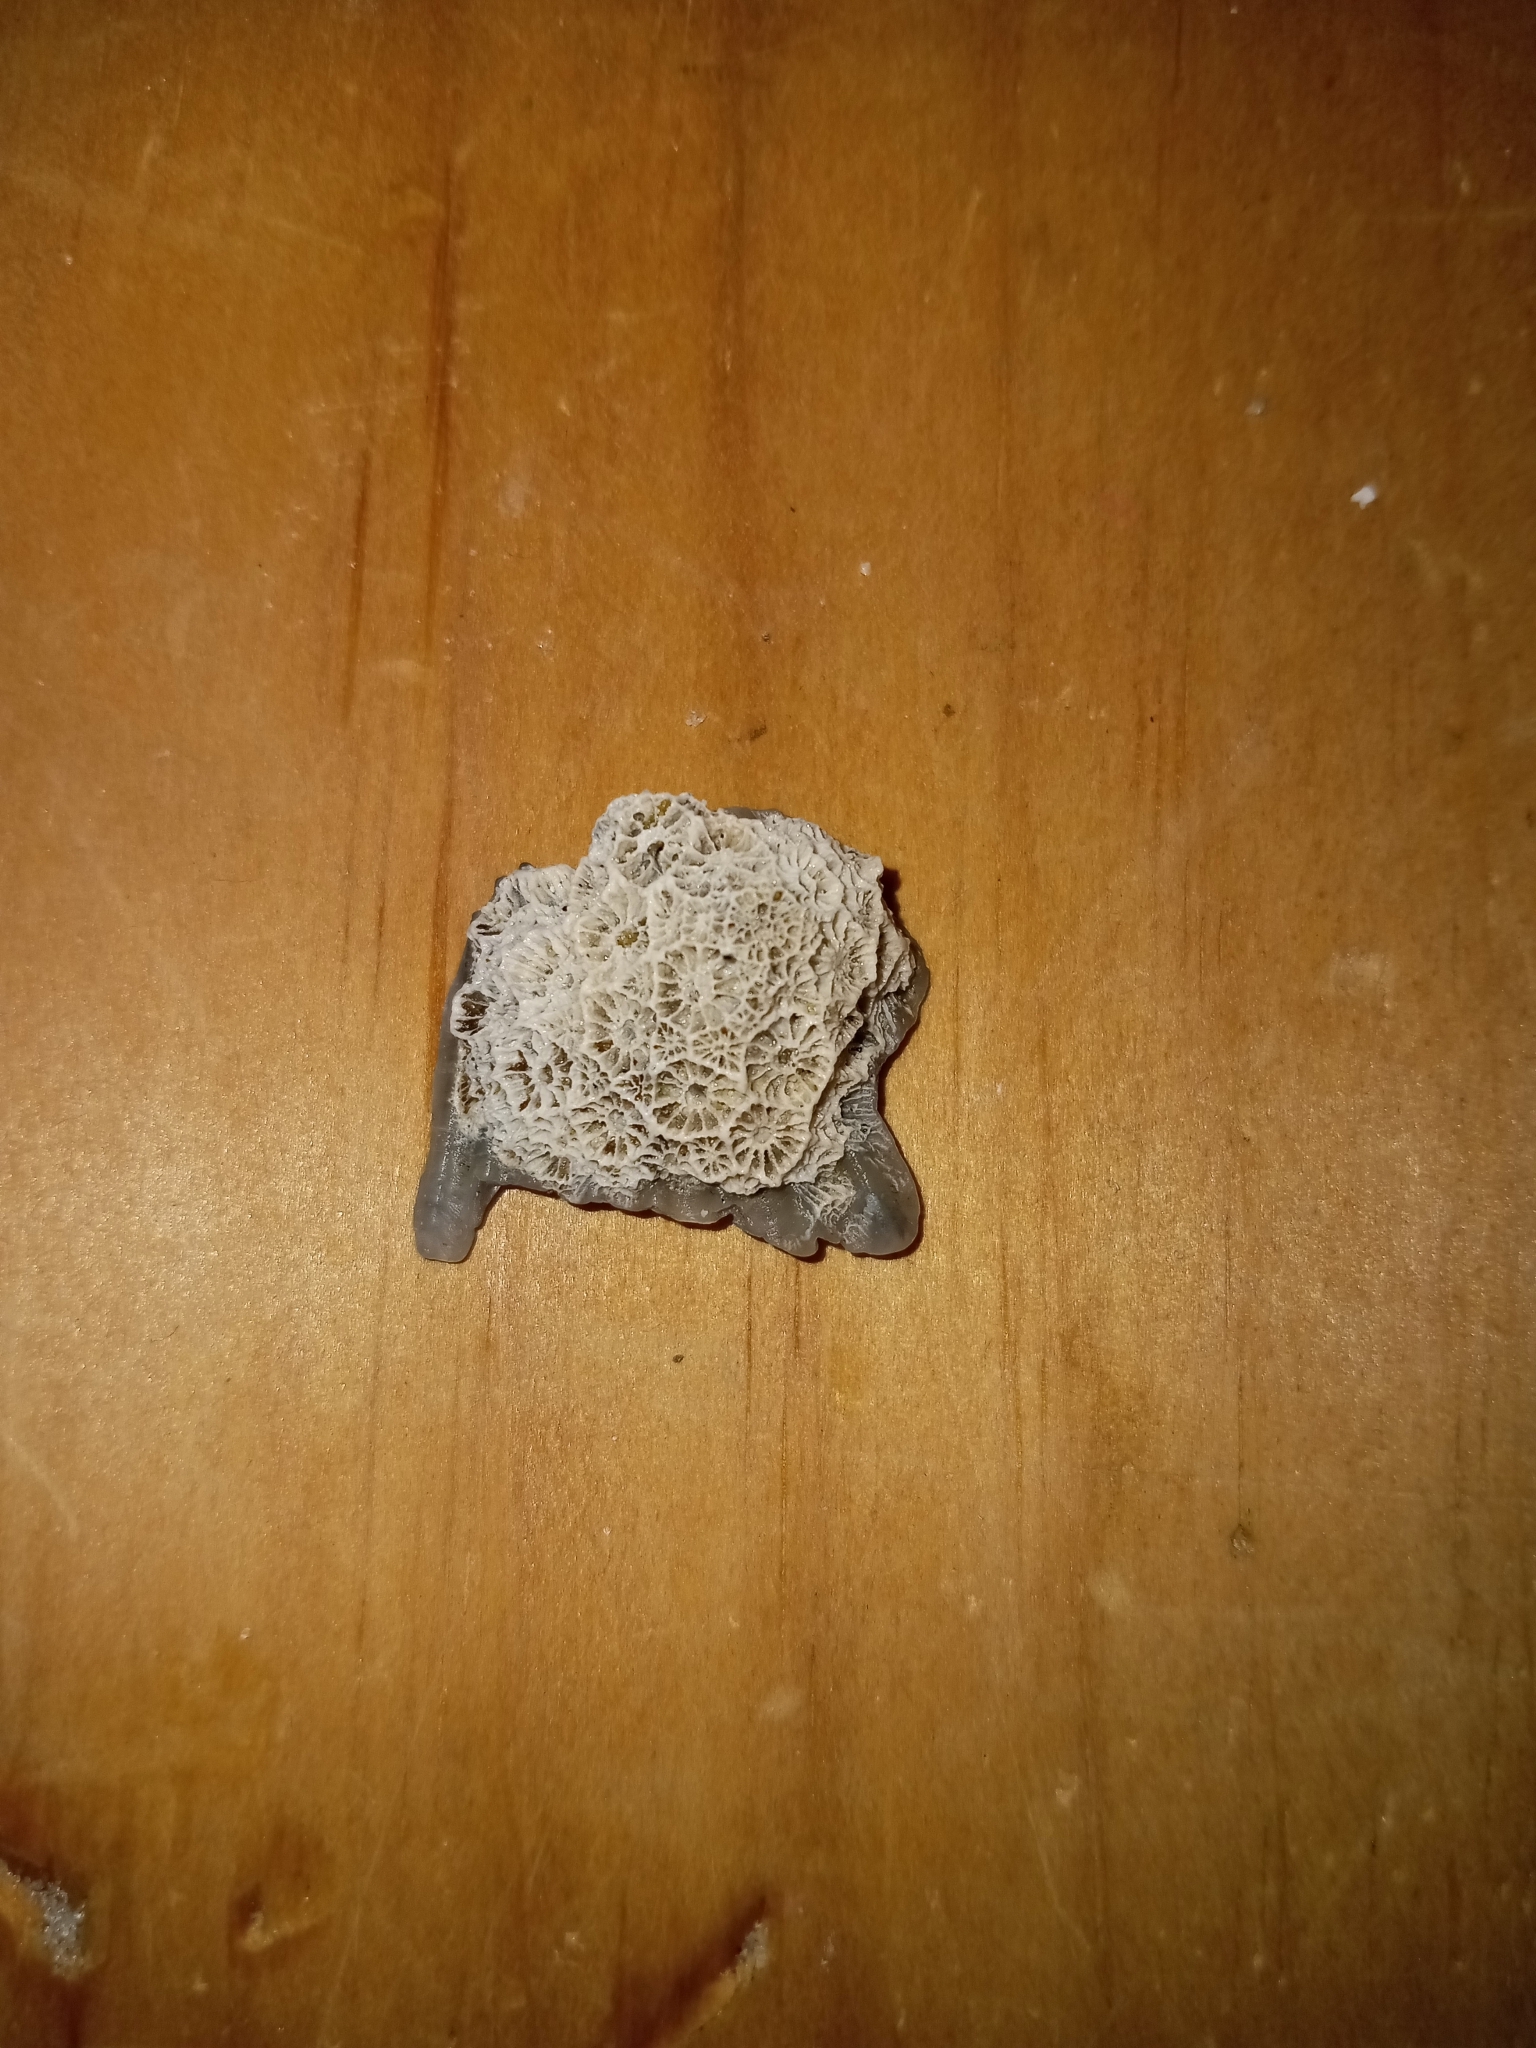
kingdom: Animalia
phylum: Cnidaria
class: Anthozoa
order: Scleractinia
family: Astrangiidae
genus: Astrangia
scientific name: Astrangia poculata
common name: Northern star coral
